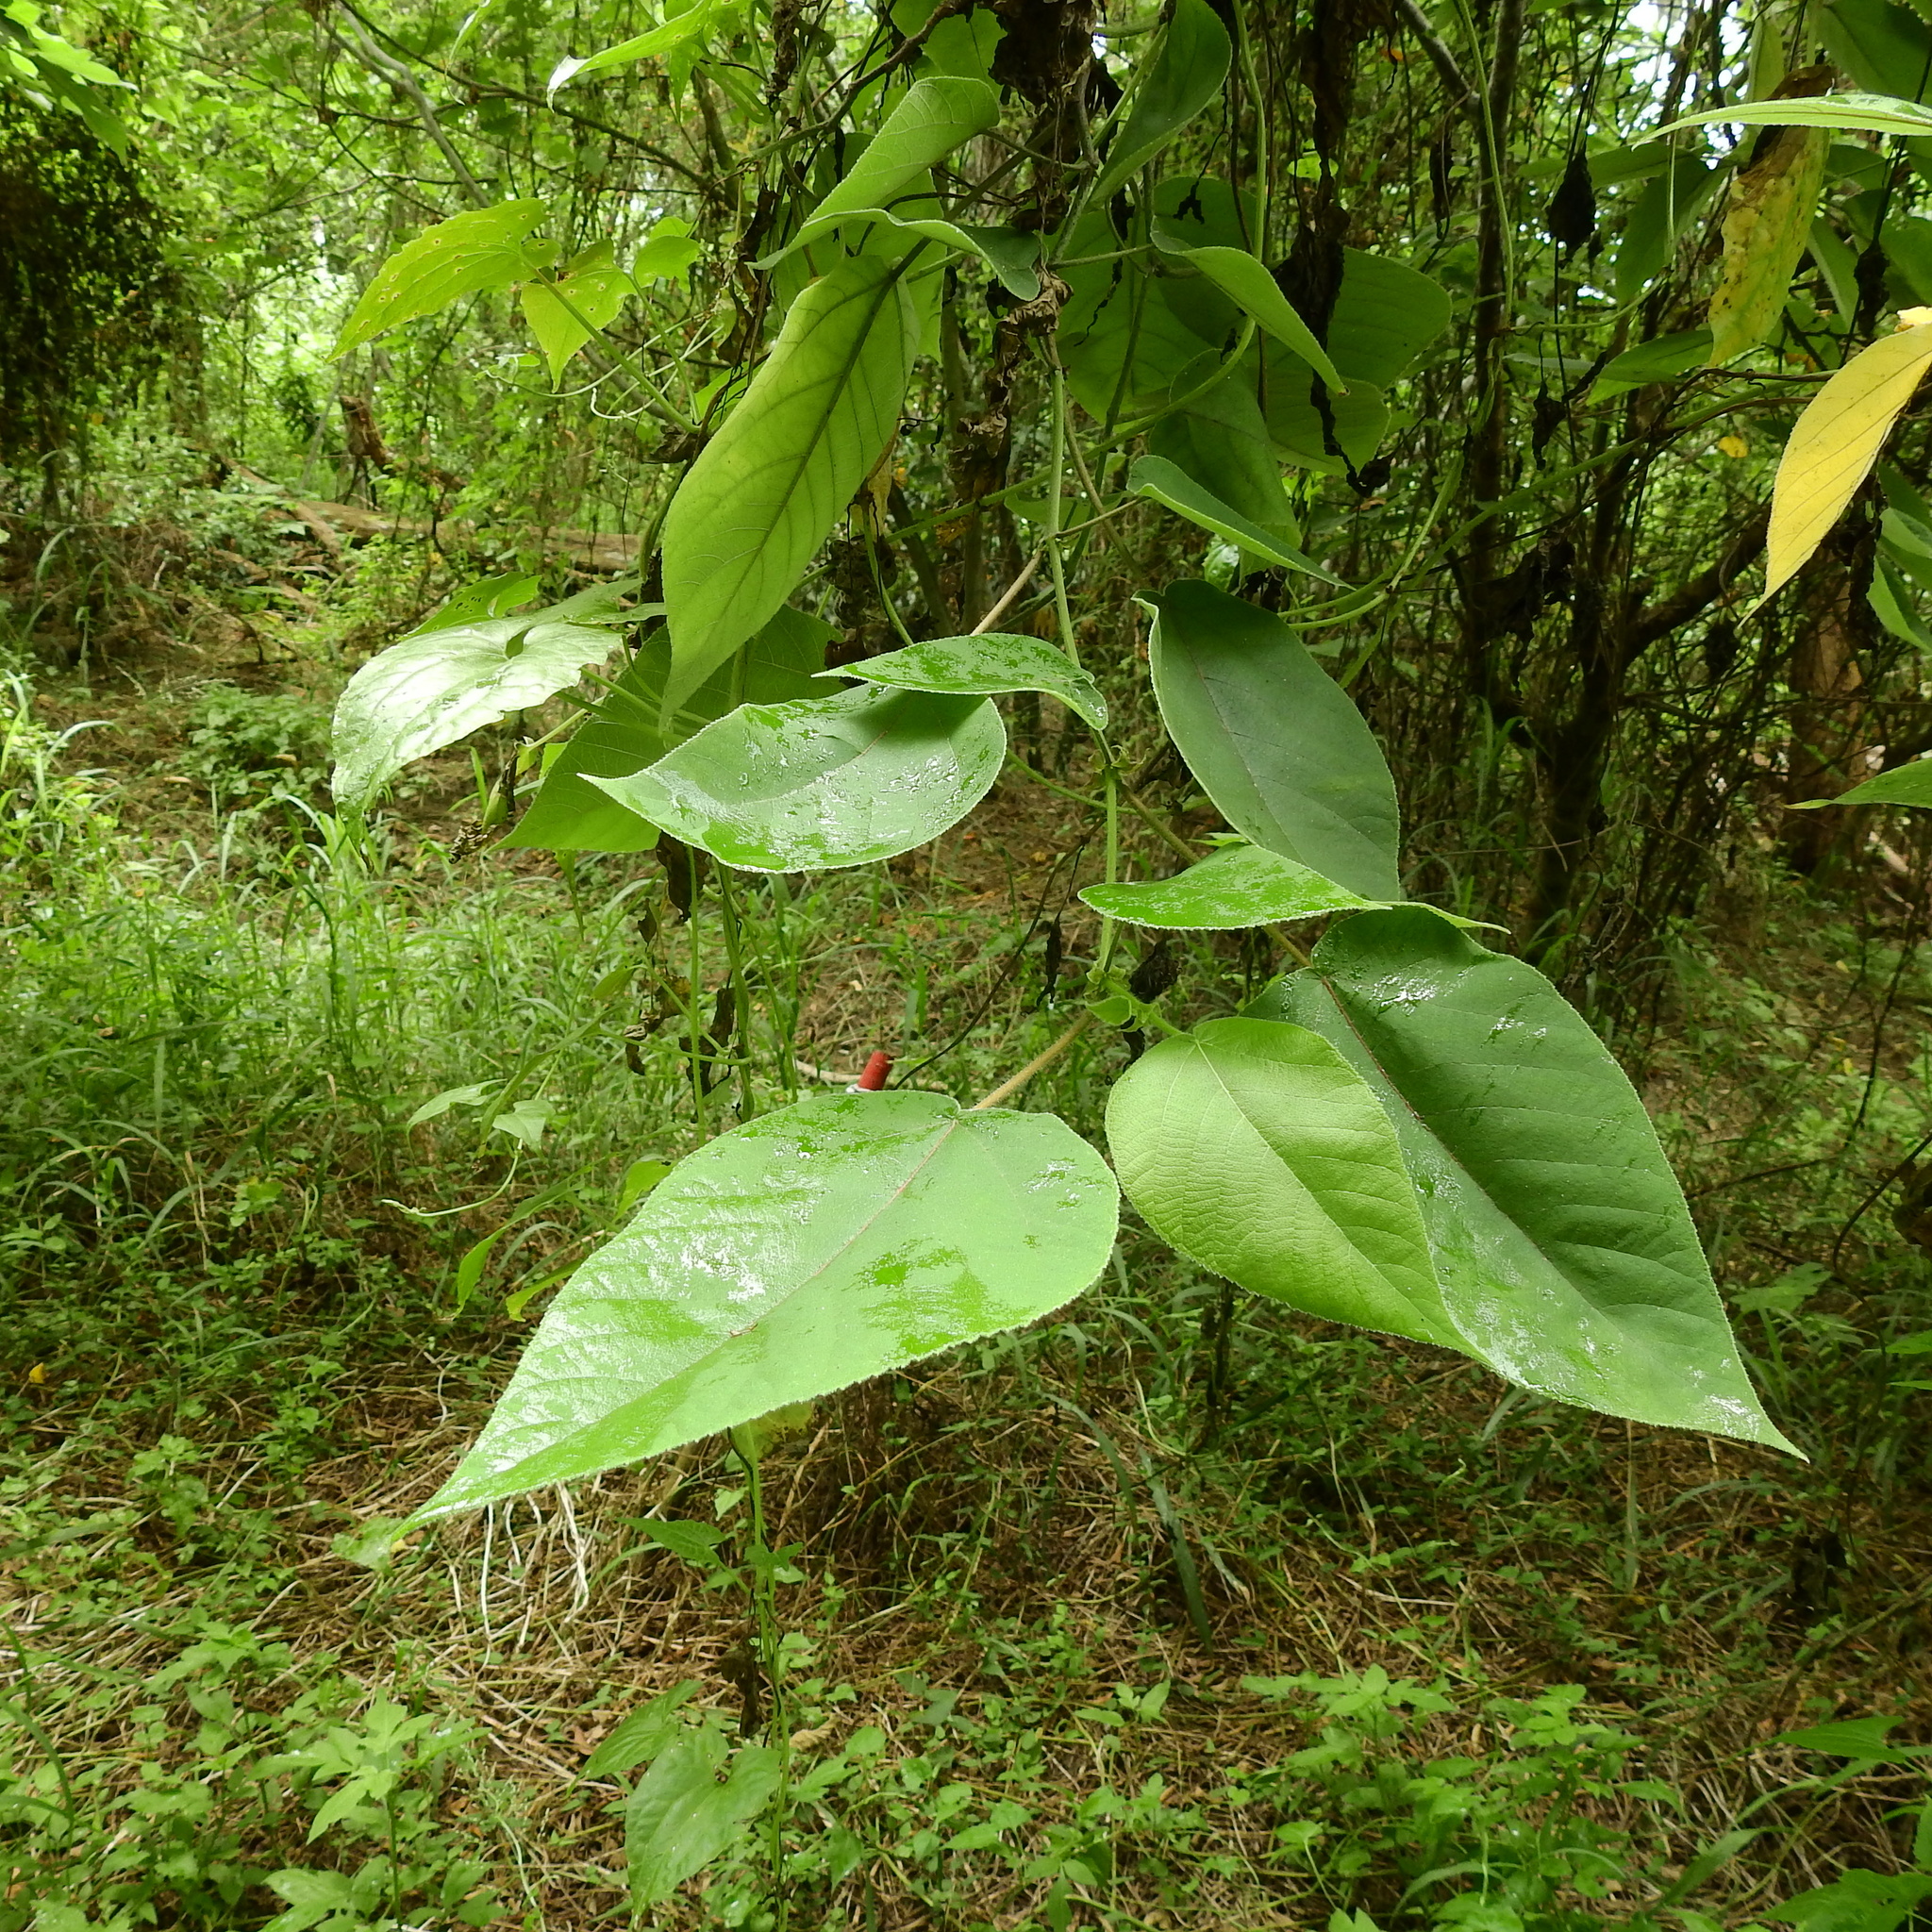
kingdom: Plantae
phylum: Tracheophyta
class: Magnoliopsida
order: Rosales
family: Moraceae
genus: Broussonetia
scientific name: Broussonetia papyrifera
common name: Paper mulberry
